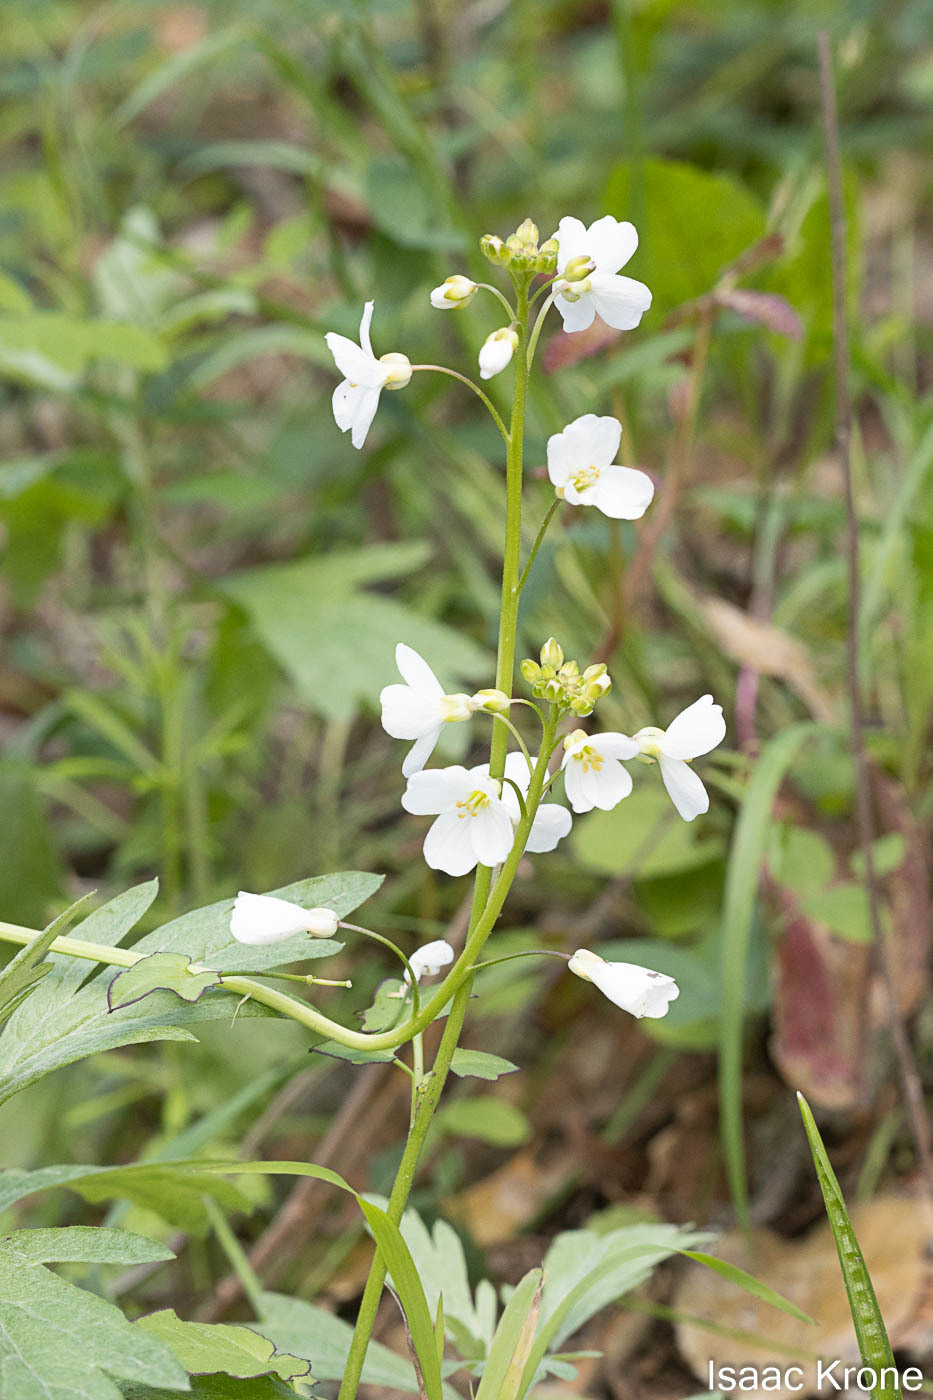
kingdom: Plantae
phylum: Tracheophyta
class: Magnoliopsida
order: Brassicales
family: Brassicaceae
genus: Cardamine
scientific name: Cardamine californica
